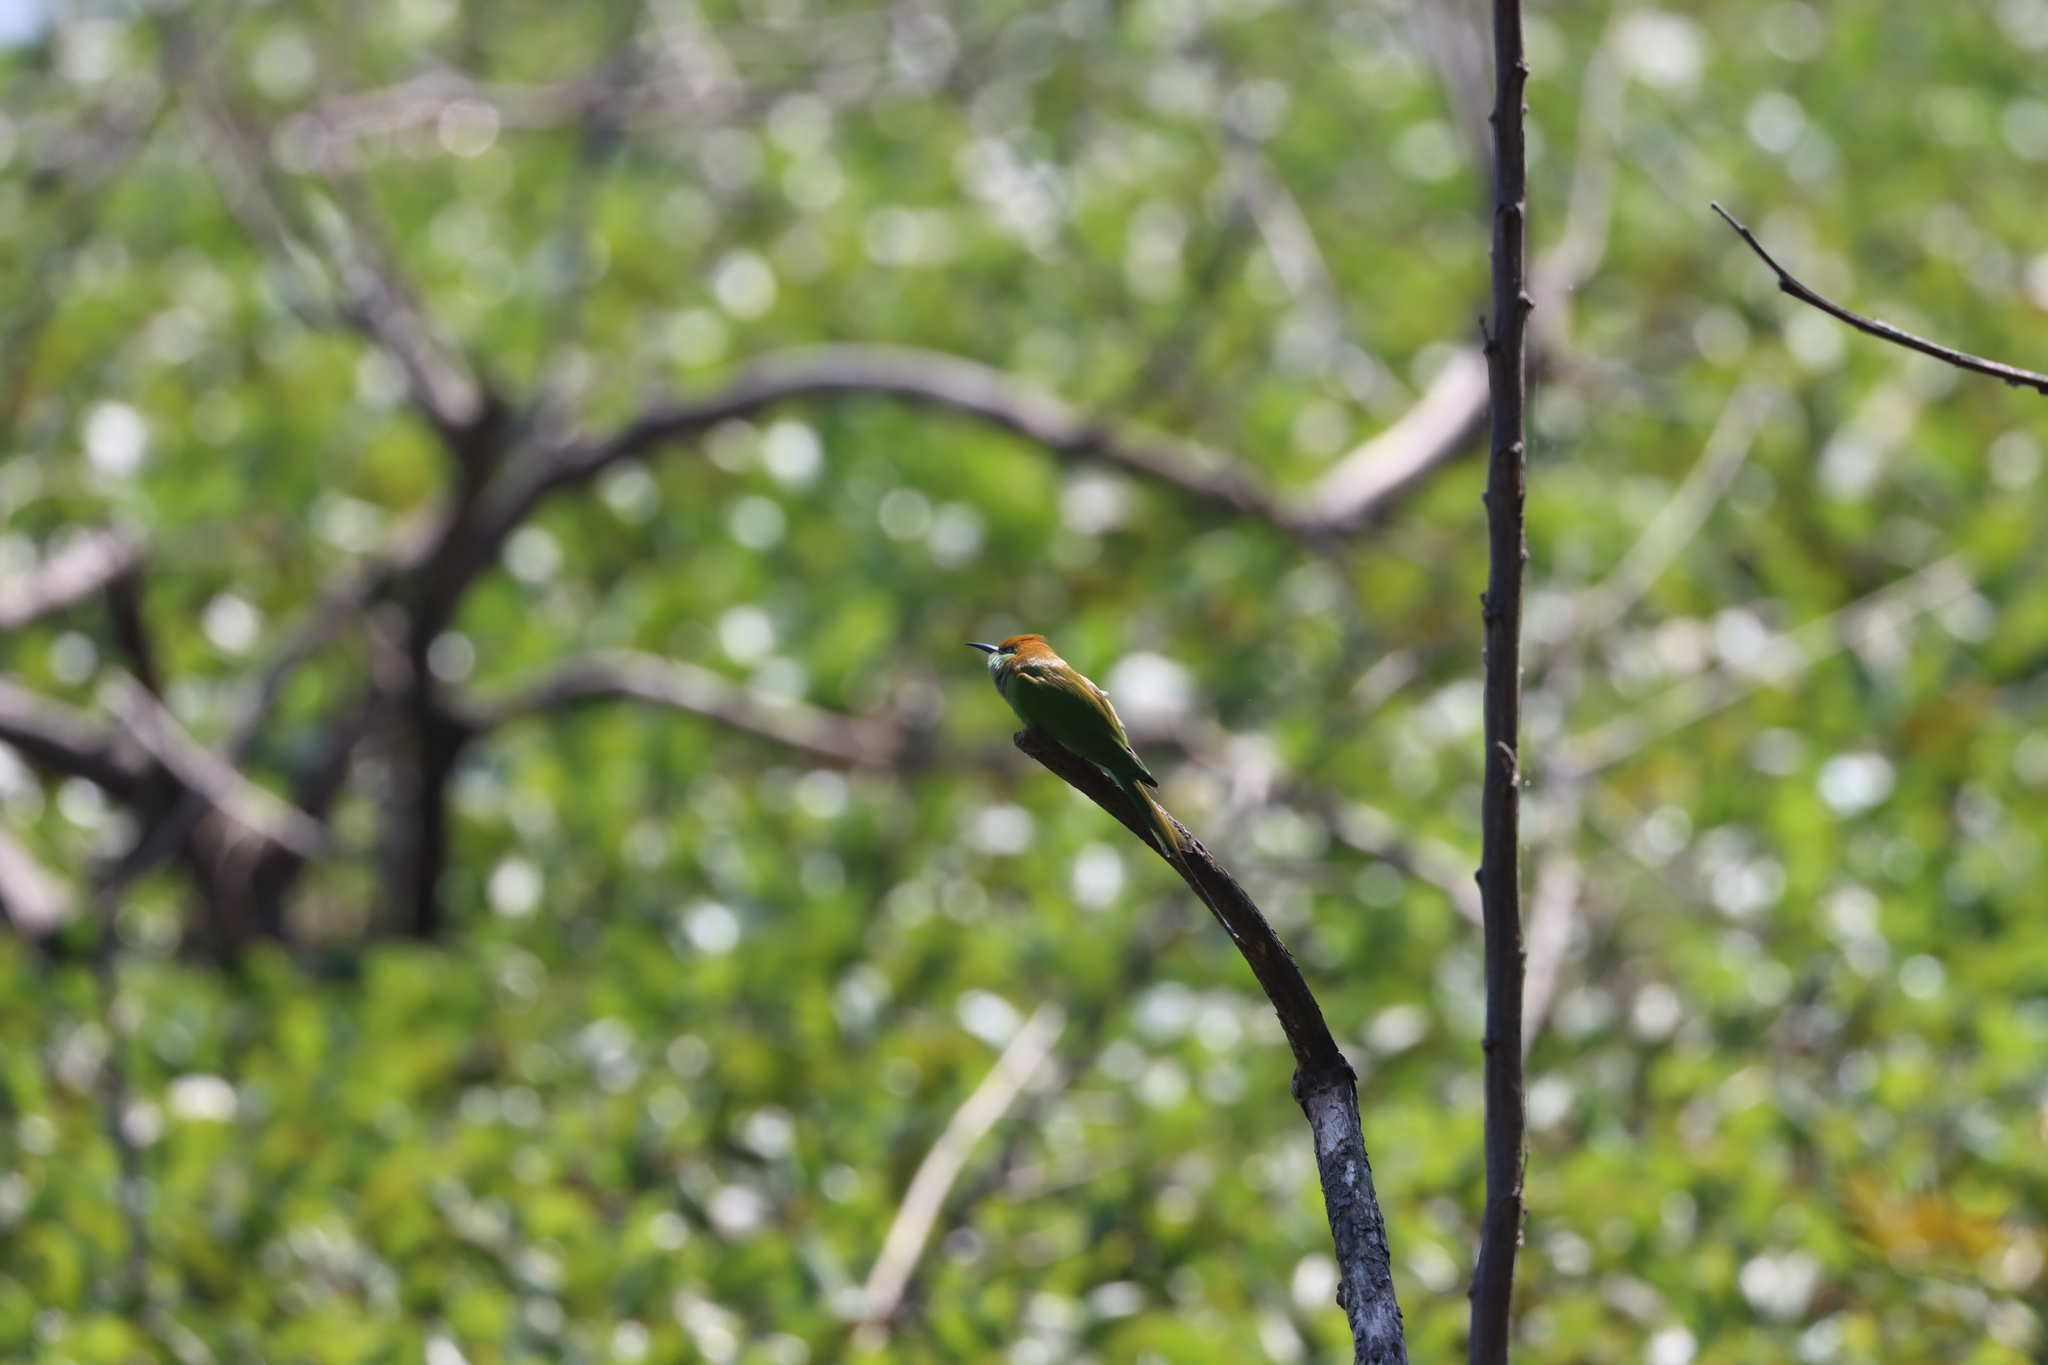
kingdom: Animalia
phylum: Chordata
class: Aves
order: Coraciiformes
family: Meropidae
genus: Merops
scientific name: Merops orientalis
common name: Green bee-eater
